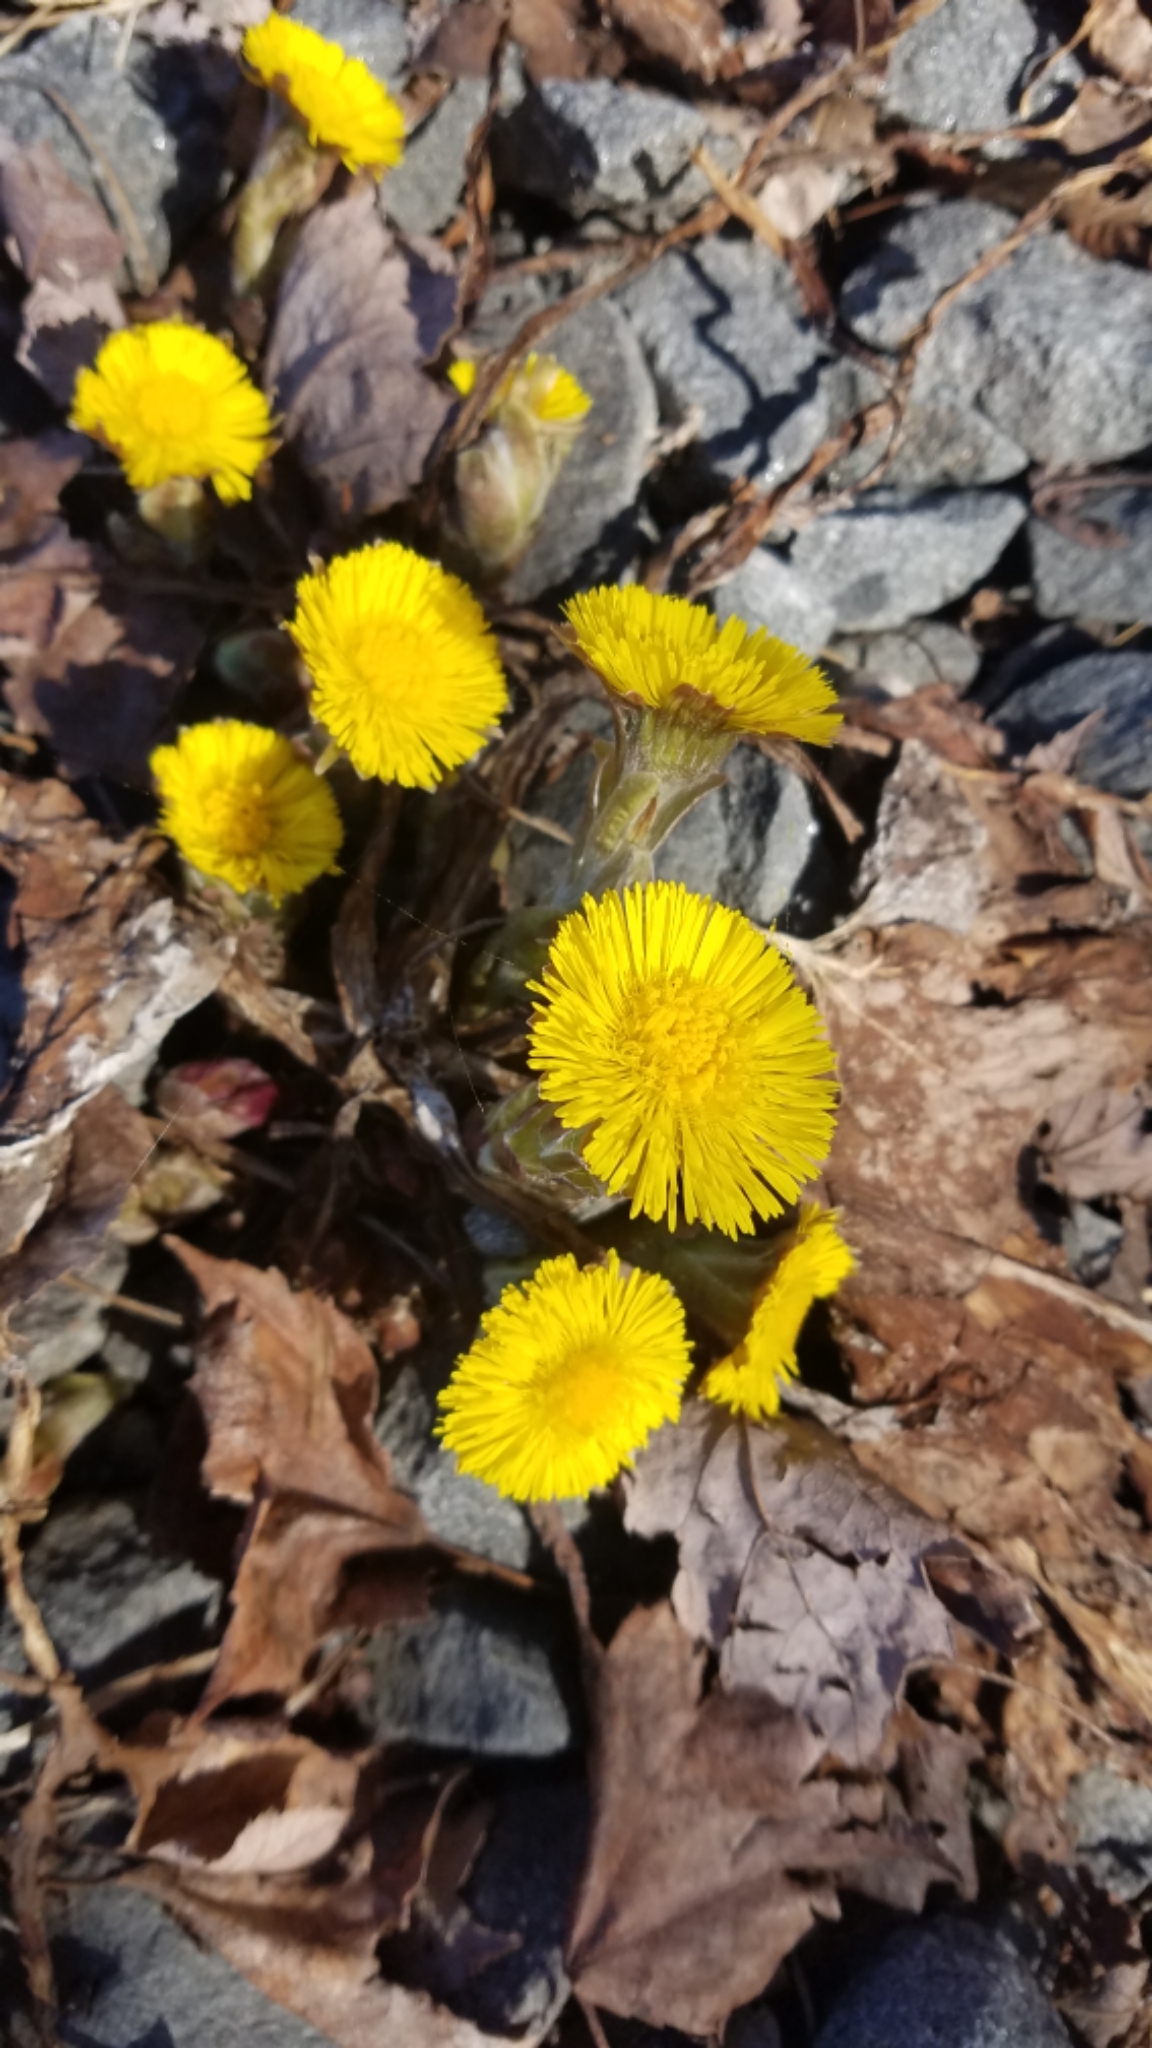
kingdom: Plantae
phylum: Tracheophyta
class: Magnoliopsida
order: Asterales
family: Asteraceae
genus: Tussilago
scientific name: Tussilago farfara
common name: Coltsfoot
